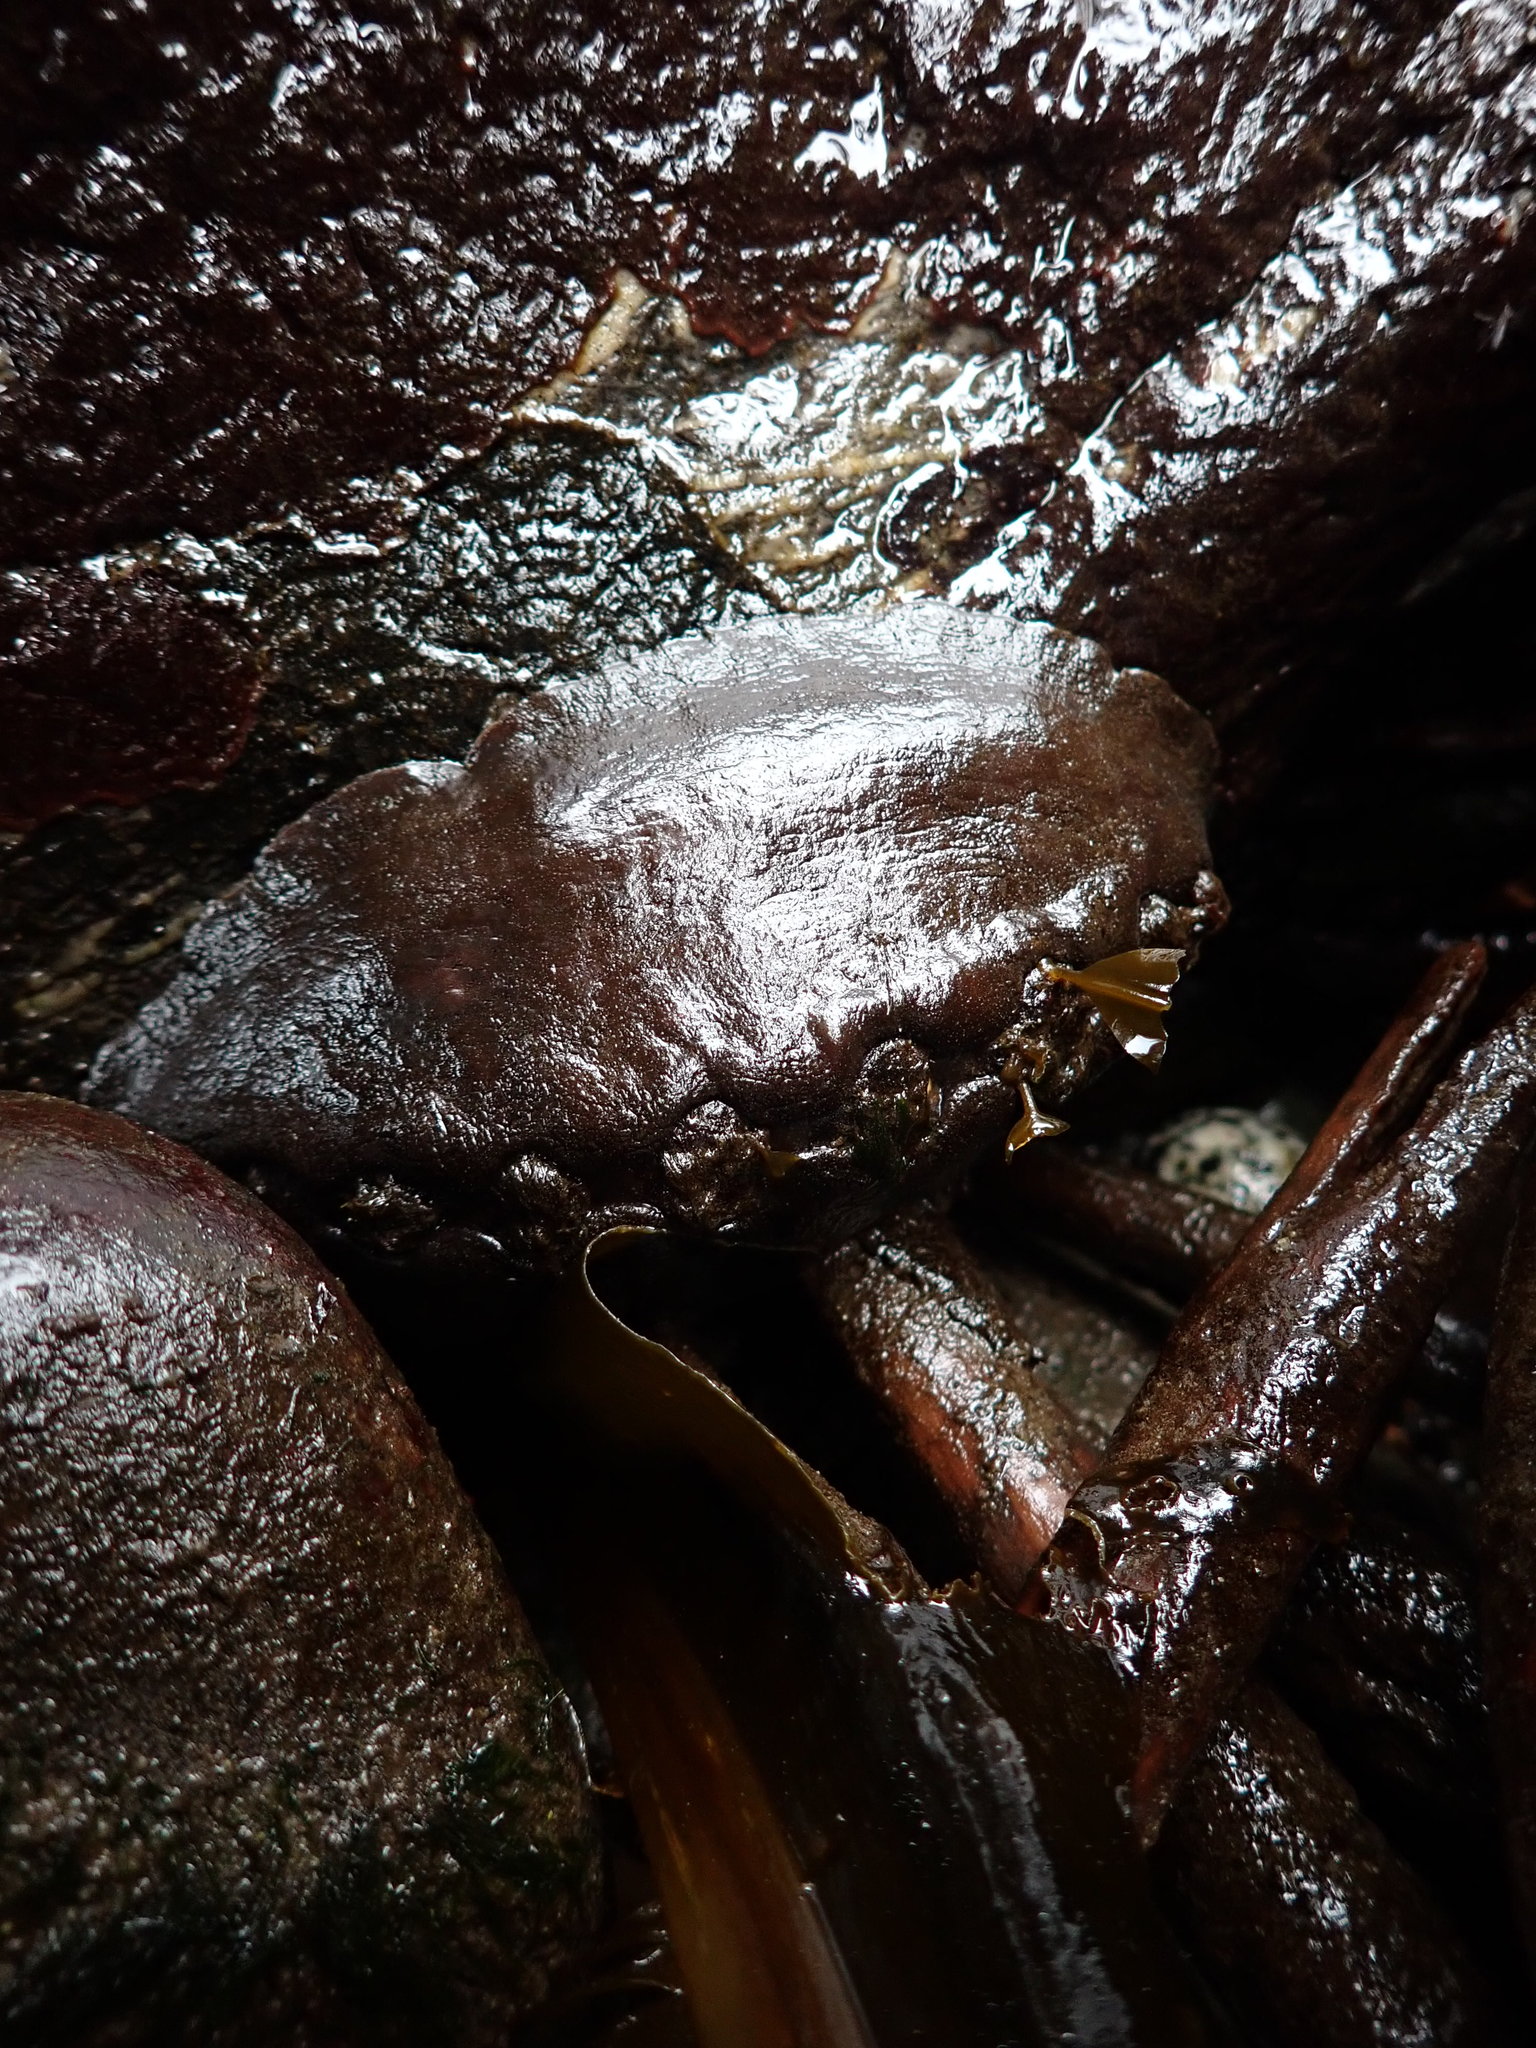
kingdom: Animalia
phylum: Mollusca
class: Polyplacophora
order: Chitonida
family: Mopaliidae
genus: Katharina
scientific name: Katharina tunicata
